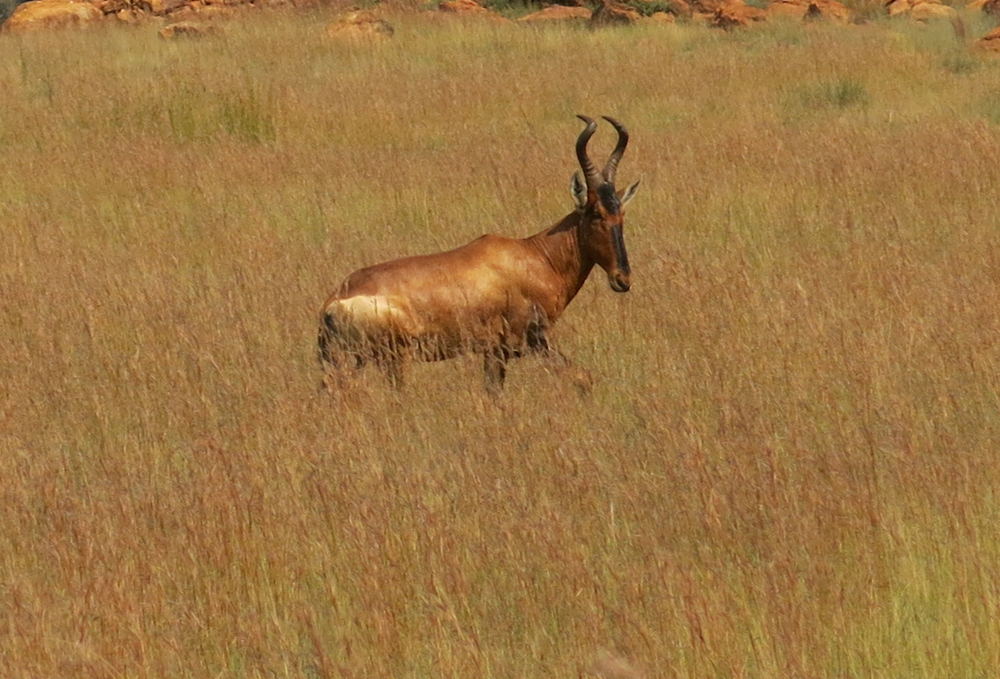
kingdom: Animalia
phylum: Chordata
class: Mammalia
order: Artiodactyla
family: Bovidae
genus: Alcelaphus
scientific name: Alcelaphus caama
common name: Red hartebeest
